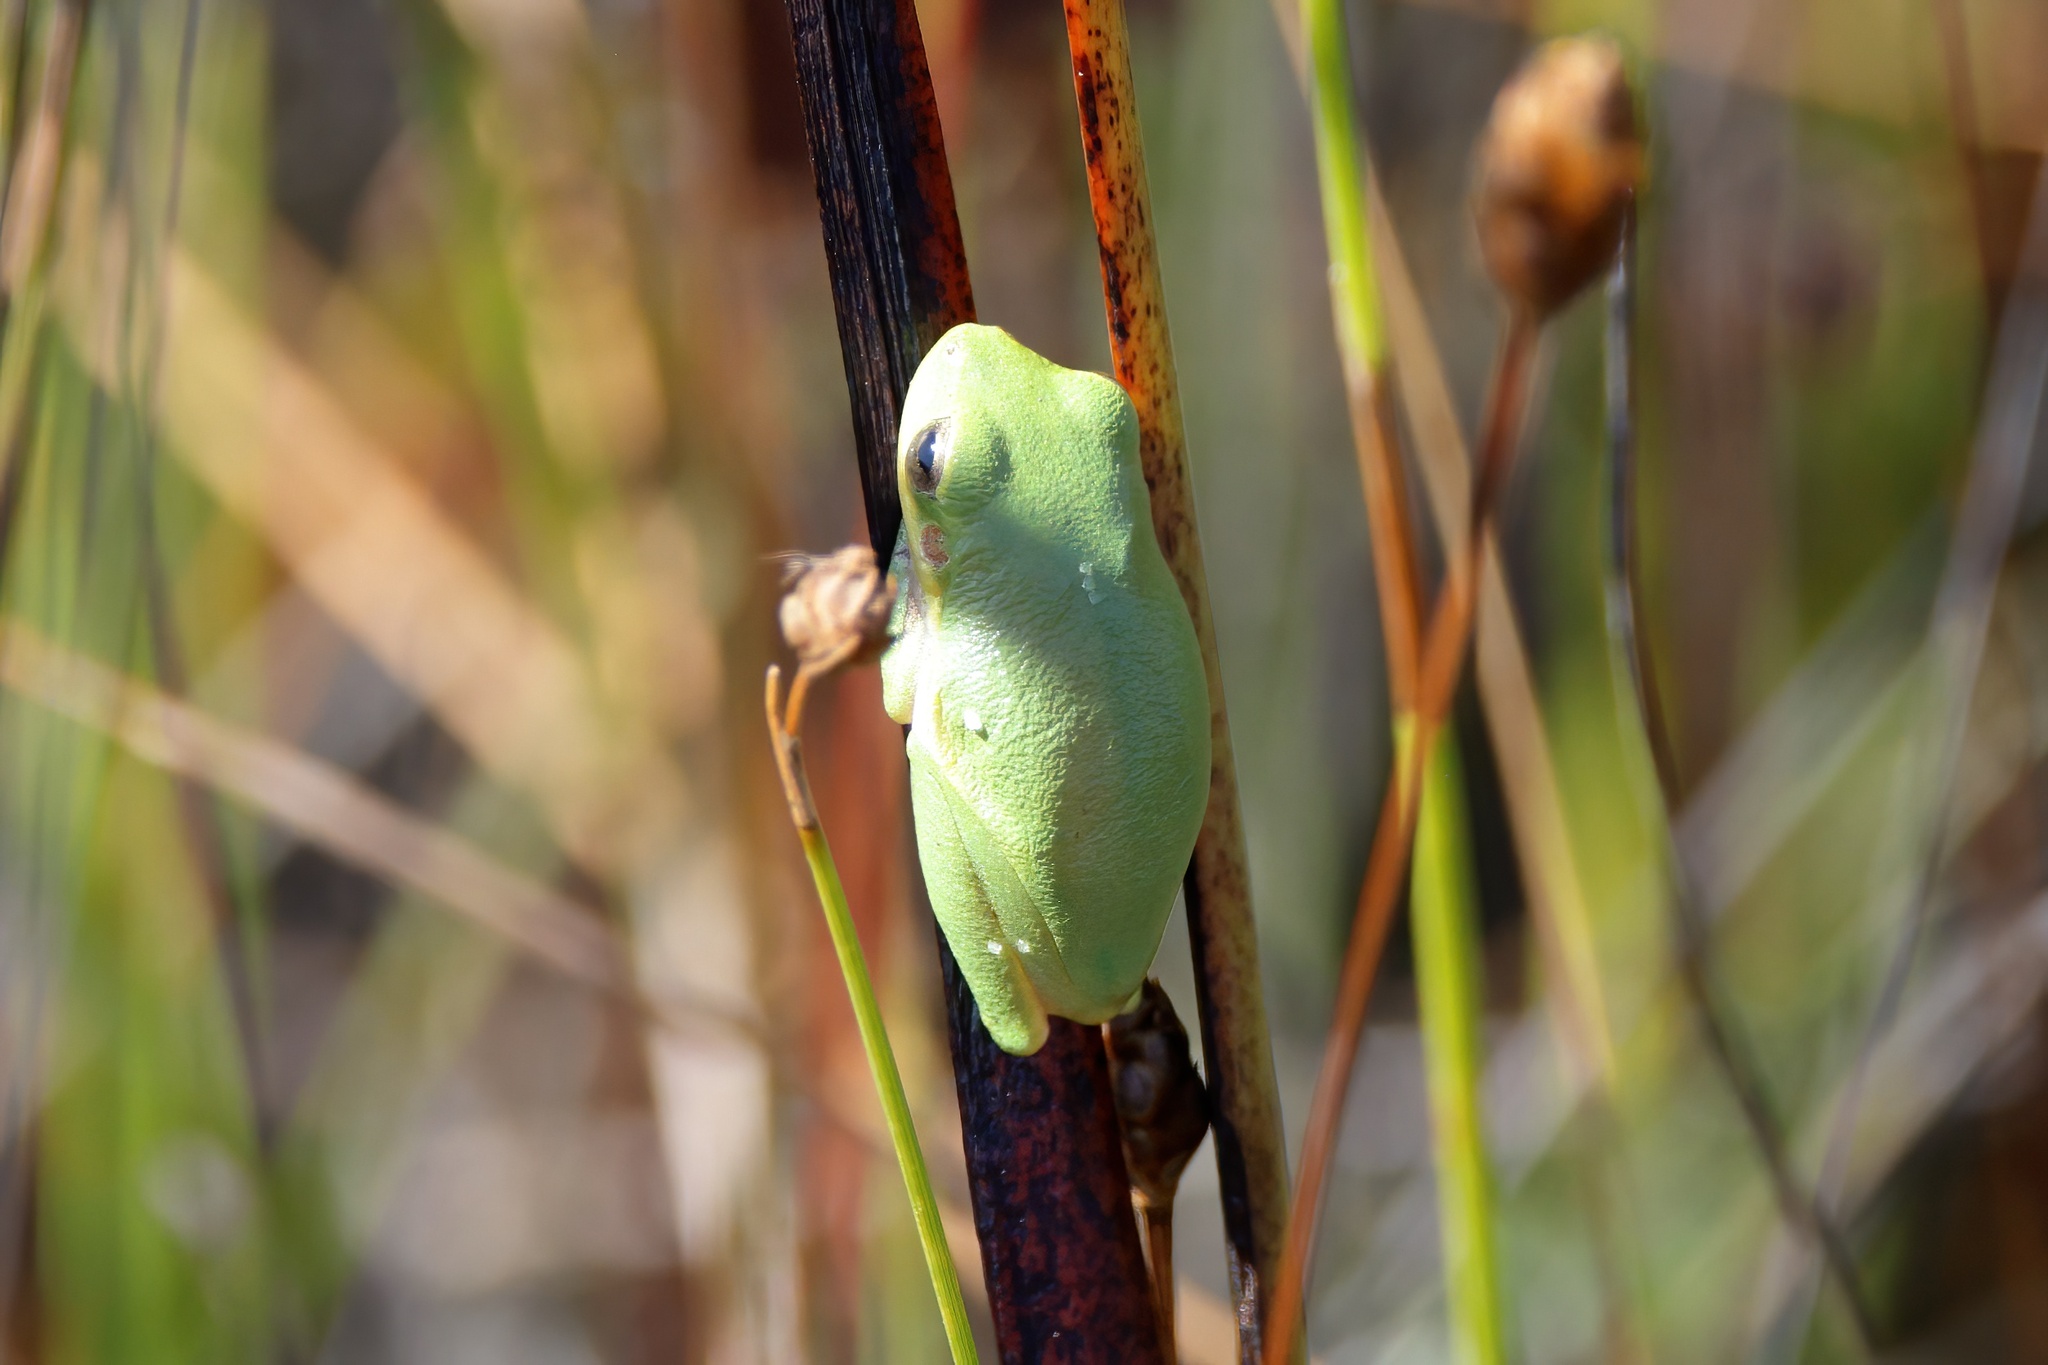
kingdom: Animalia
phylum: Chordata
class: Amphibia
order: Anura
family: Hylidae
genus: Dryophytes
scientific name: Dryophytes squirellus
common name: Squirrel treefrog
